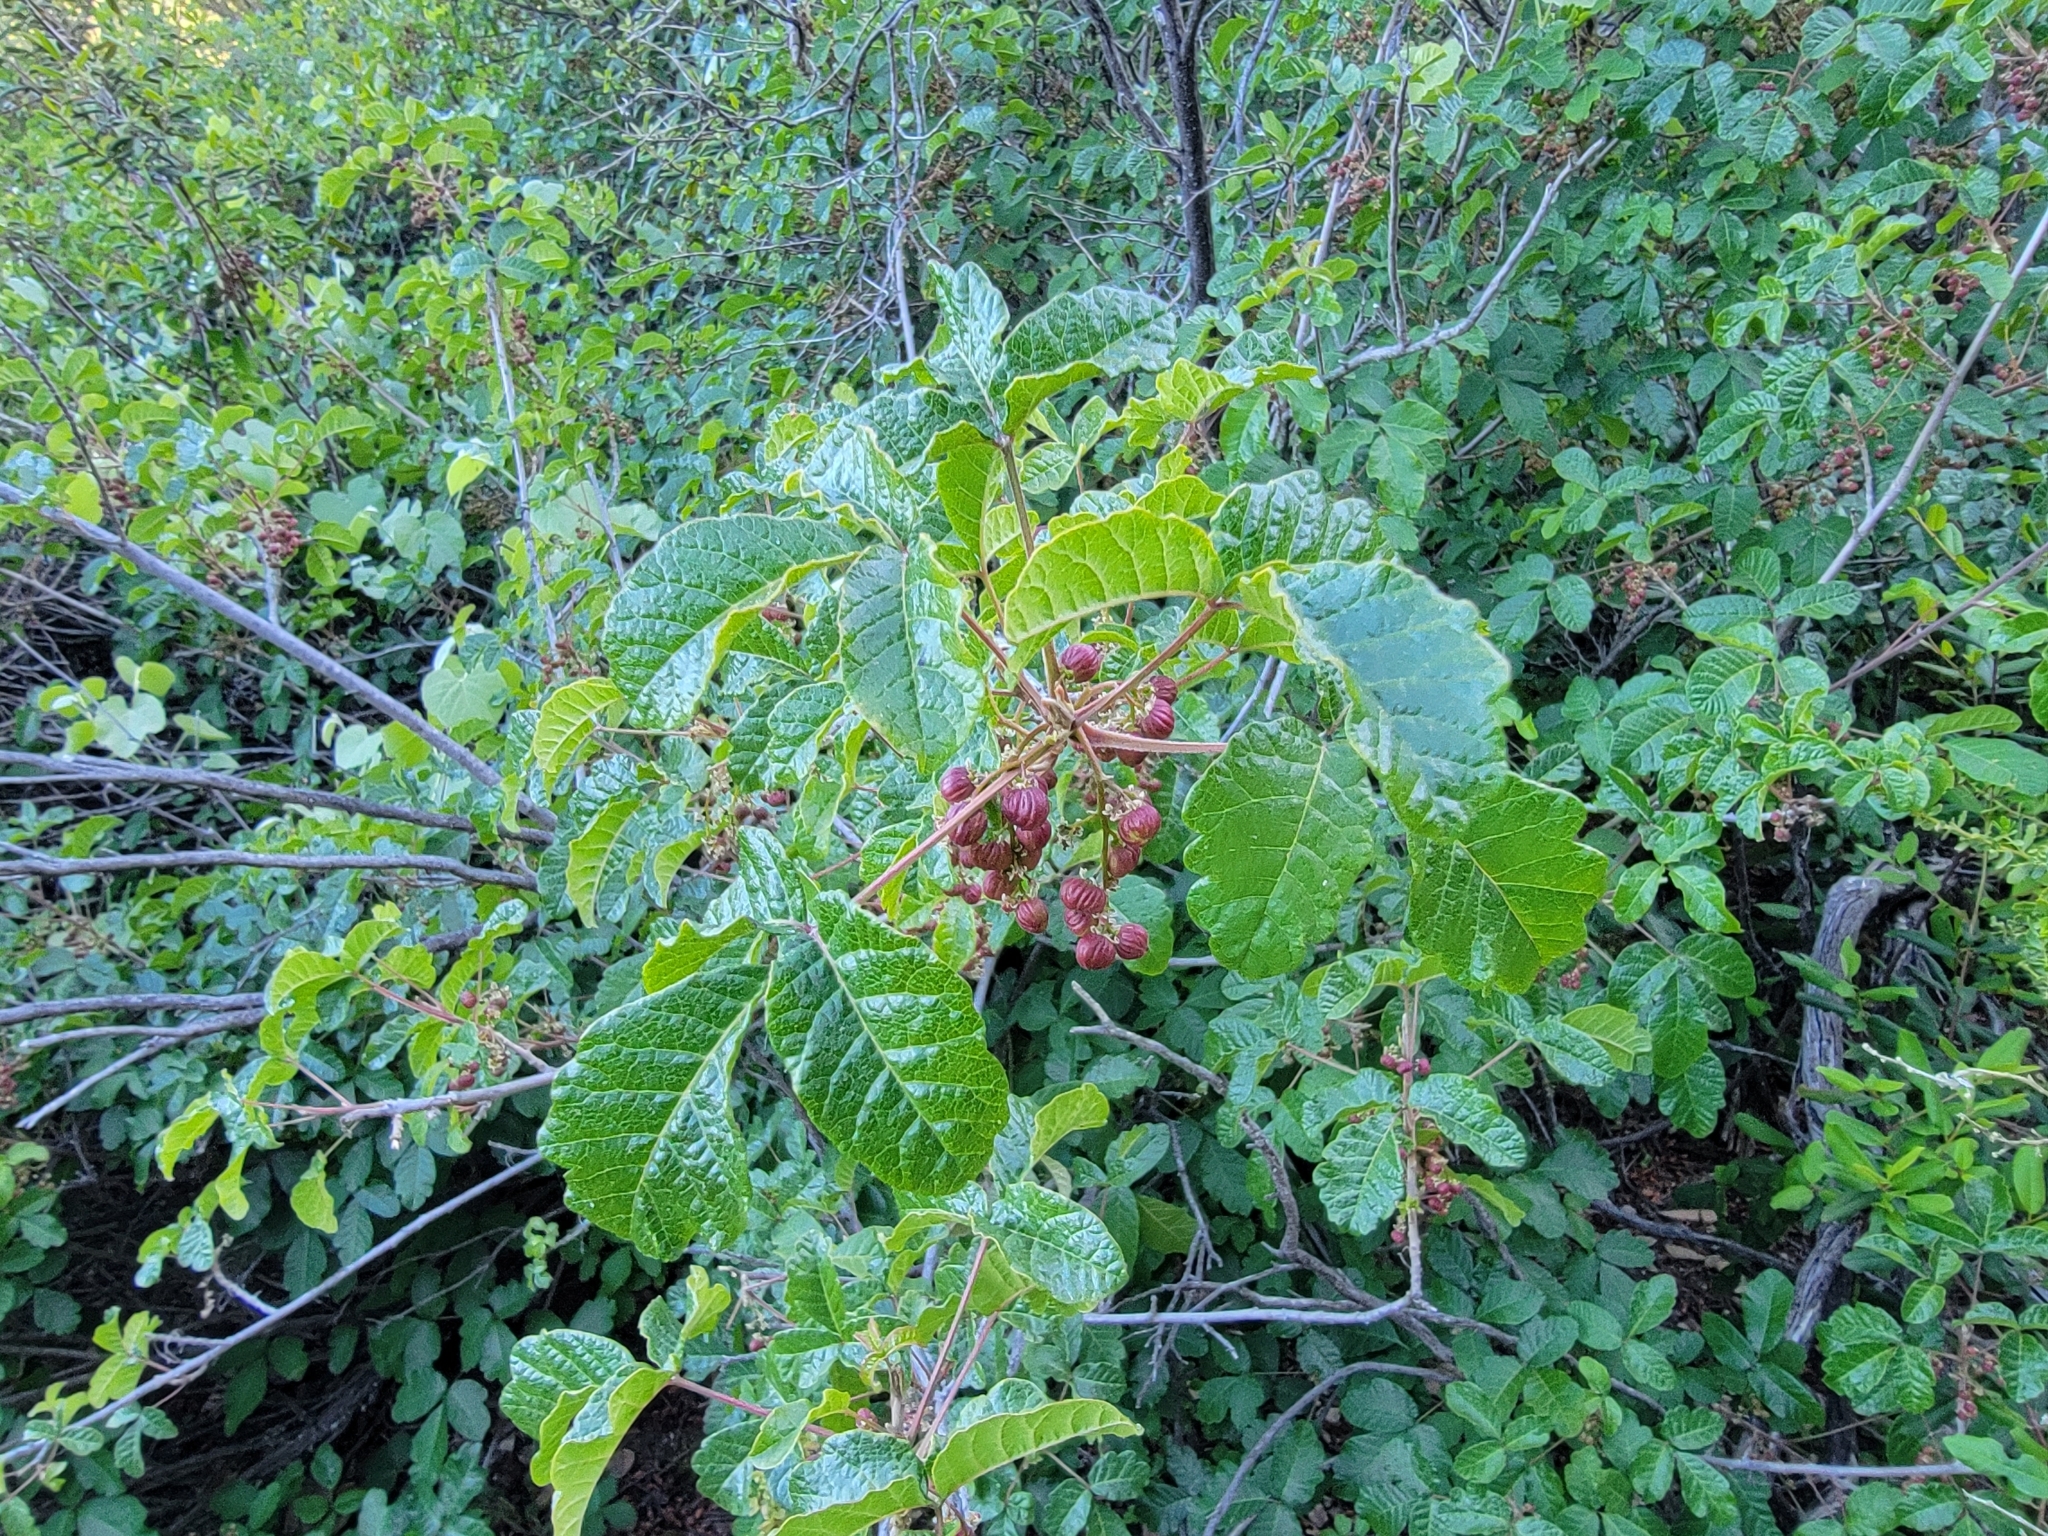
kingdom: Plantae
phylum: Tracheophyta
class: Magnoliopsida
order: Sapindales
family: Anacardiaceae
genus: Toxicodendron
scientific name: Toxicodendron diversilobum
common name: Pacific poison-oak
